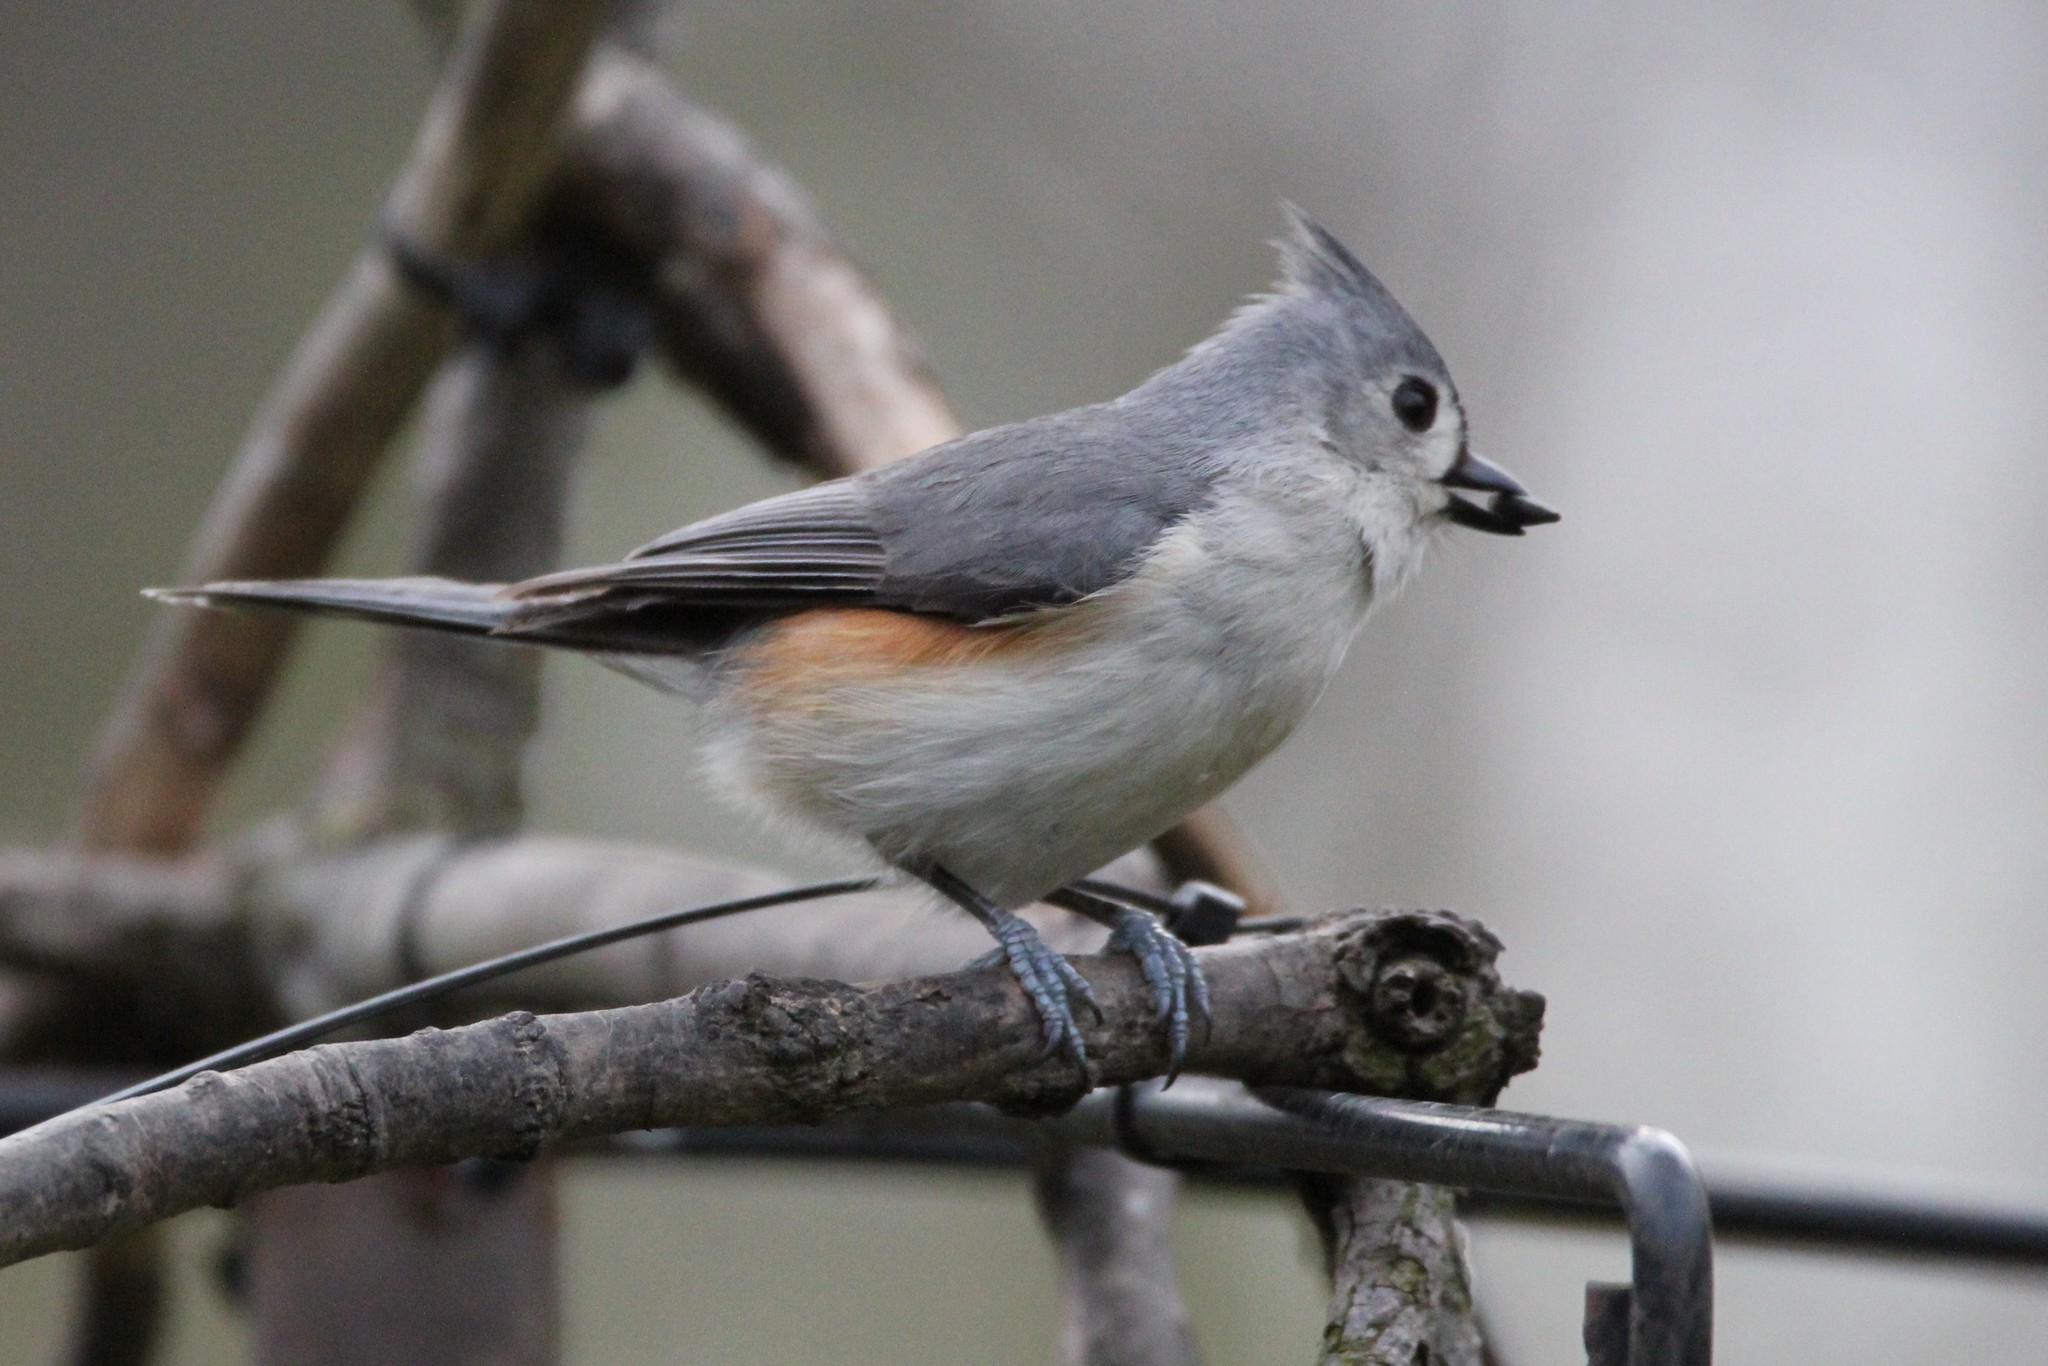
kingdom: Animalia
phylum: Chordata
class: Aves
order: Passeriformes
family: Paridae
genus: Baeolophus
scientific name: Baeolophus bicolor
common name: Tufted titmouse
